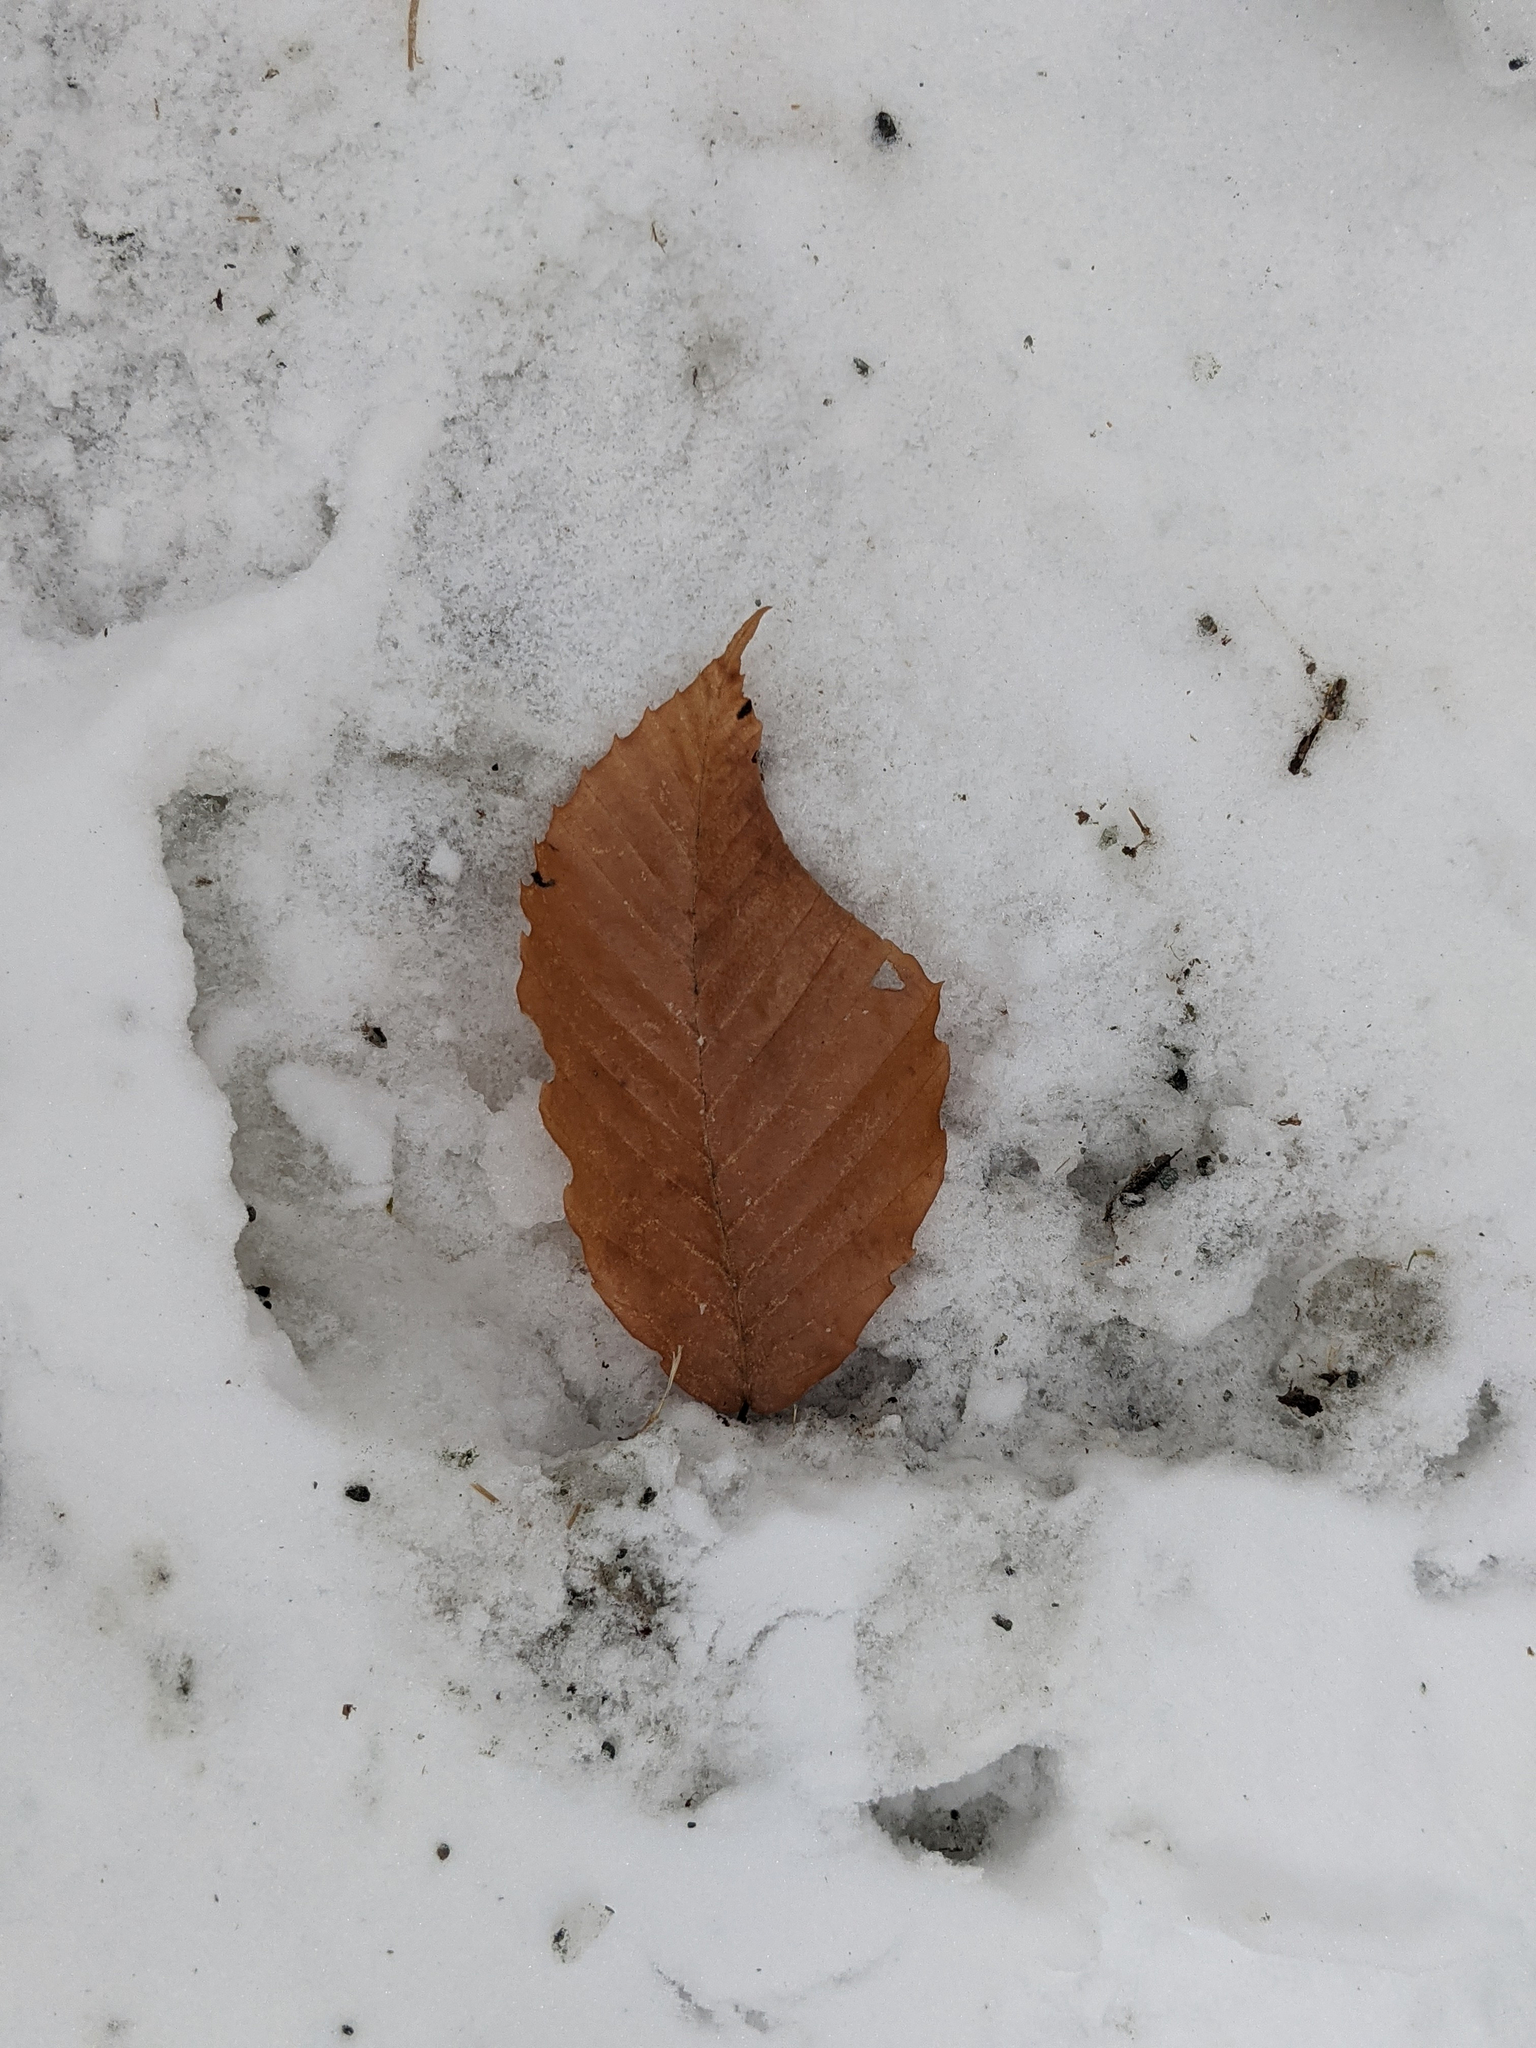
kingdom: Plantae
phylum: Tracheophyta
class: Magnoliopsida
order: Fagales
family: Fagaceae
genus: Fagus
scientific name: Fagus grandifolia
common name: American beech
